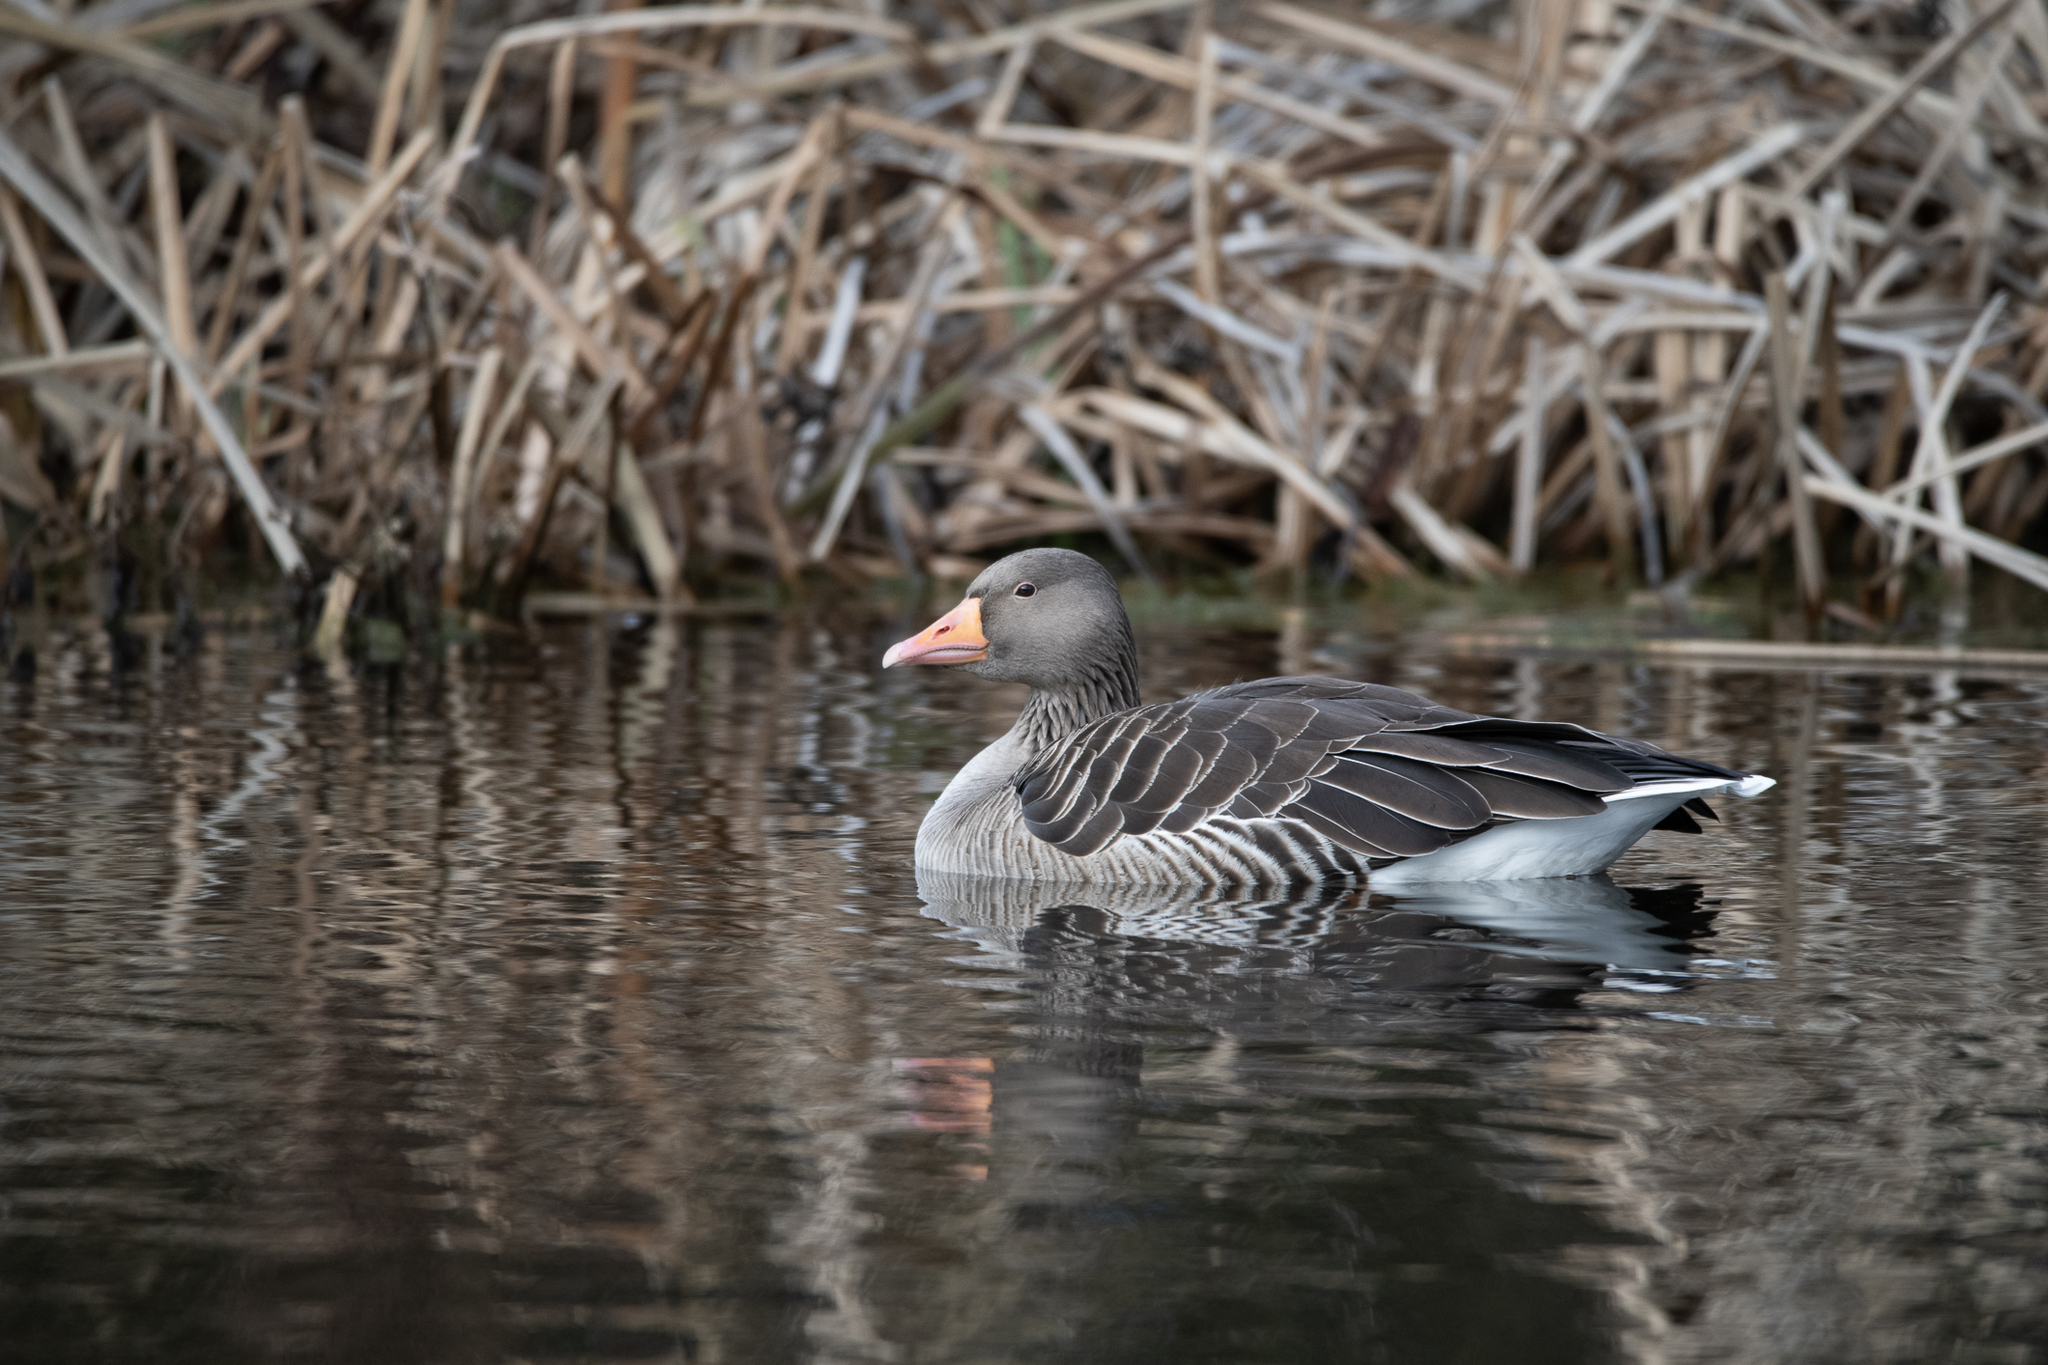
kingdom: Animalia
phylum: Chordata
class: Aves
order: Anseriformes
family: Anatidae
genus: Anser
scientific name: Anser anser
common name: Greylag goose
